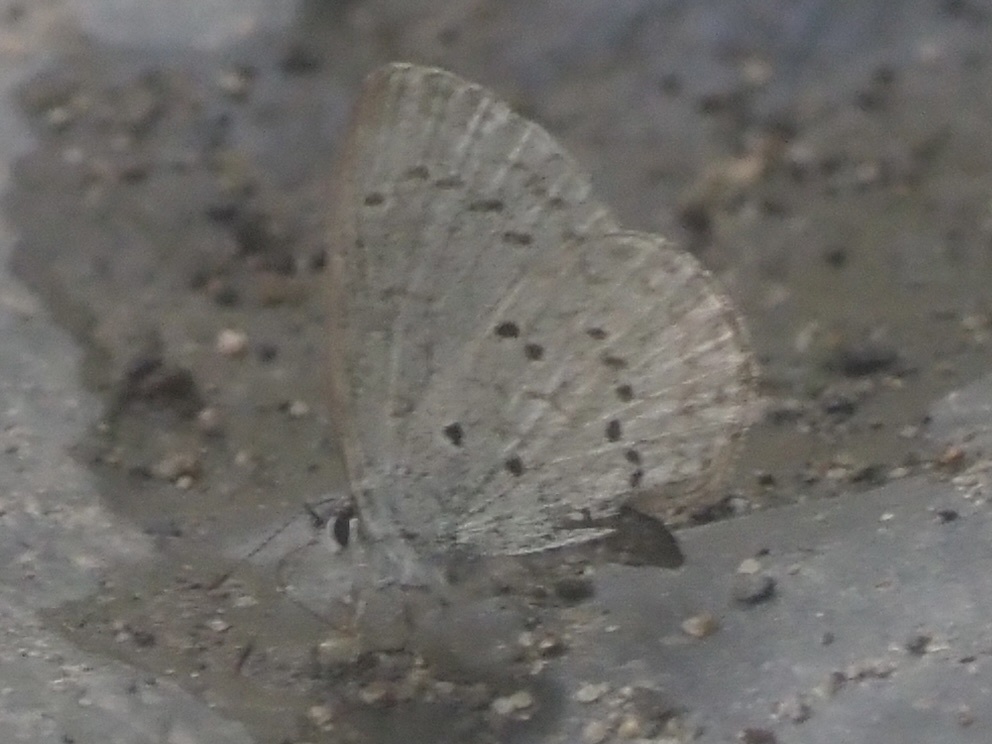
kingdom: Animalia
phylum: Arthropoda
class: Insecta
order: Lepidoptera
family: Lycaenidae
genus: Celastrina
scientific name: Celastrina ladon
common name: Spring azure
